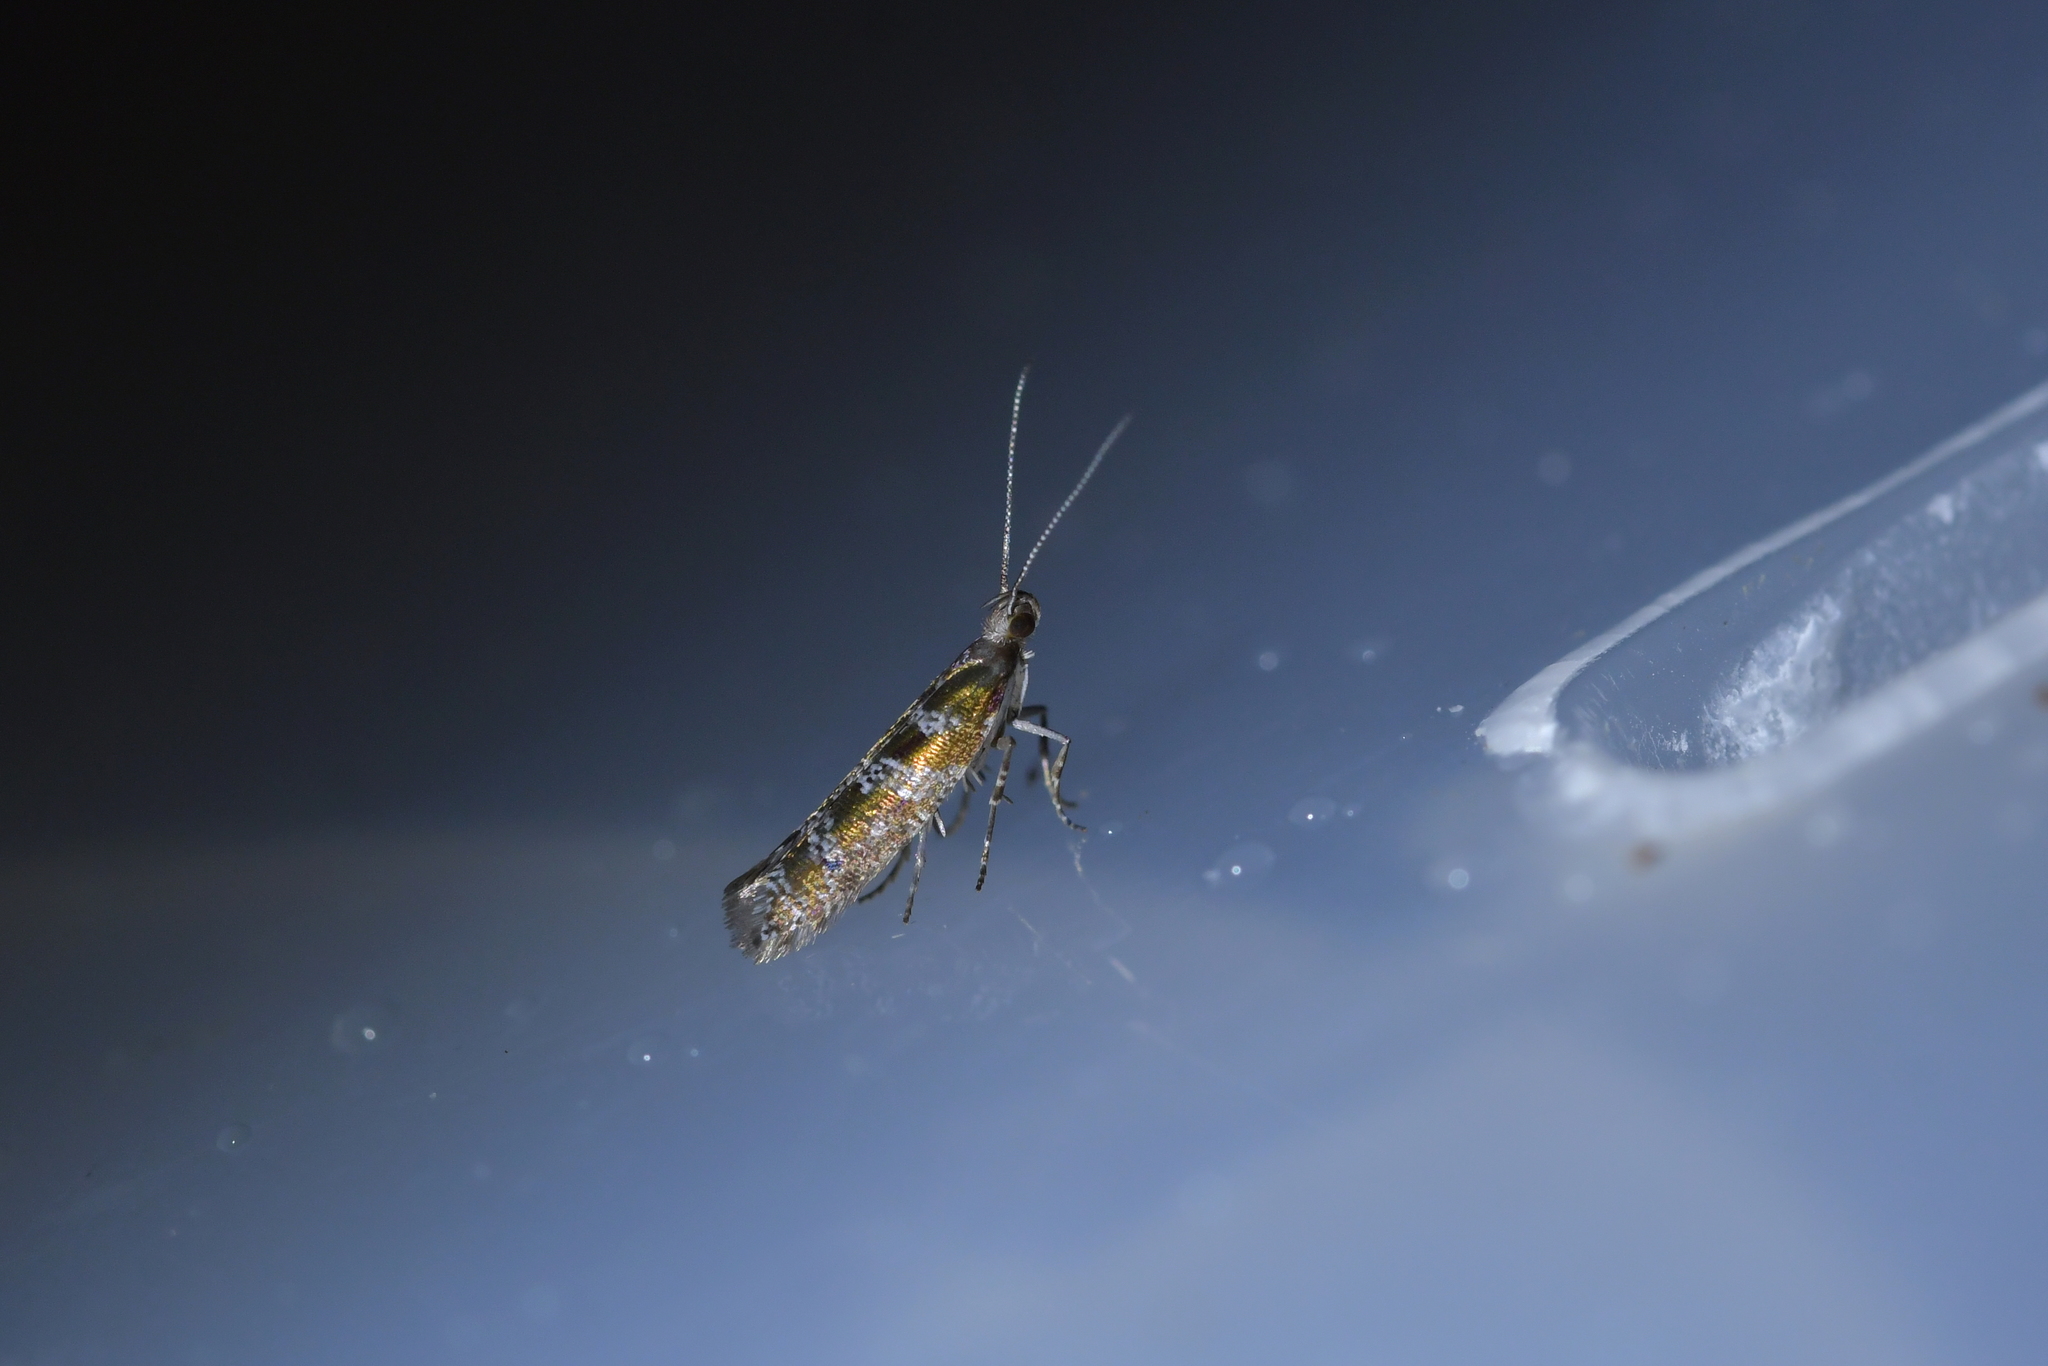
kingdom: Animalia
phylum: Arthropoda
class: Insecta
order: Lepidoptera
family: Glyphipterigidae
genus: Chrysorthenches
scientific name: Chrysorthenches drosochalca
